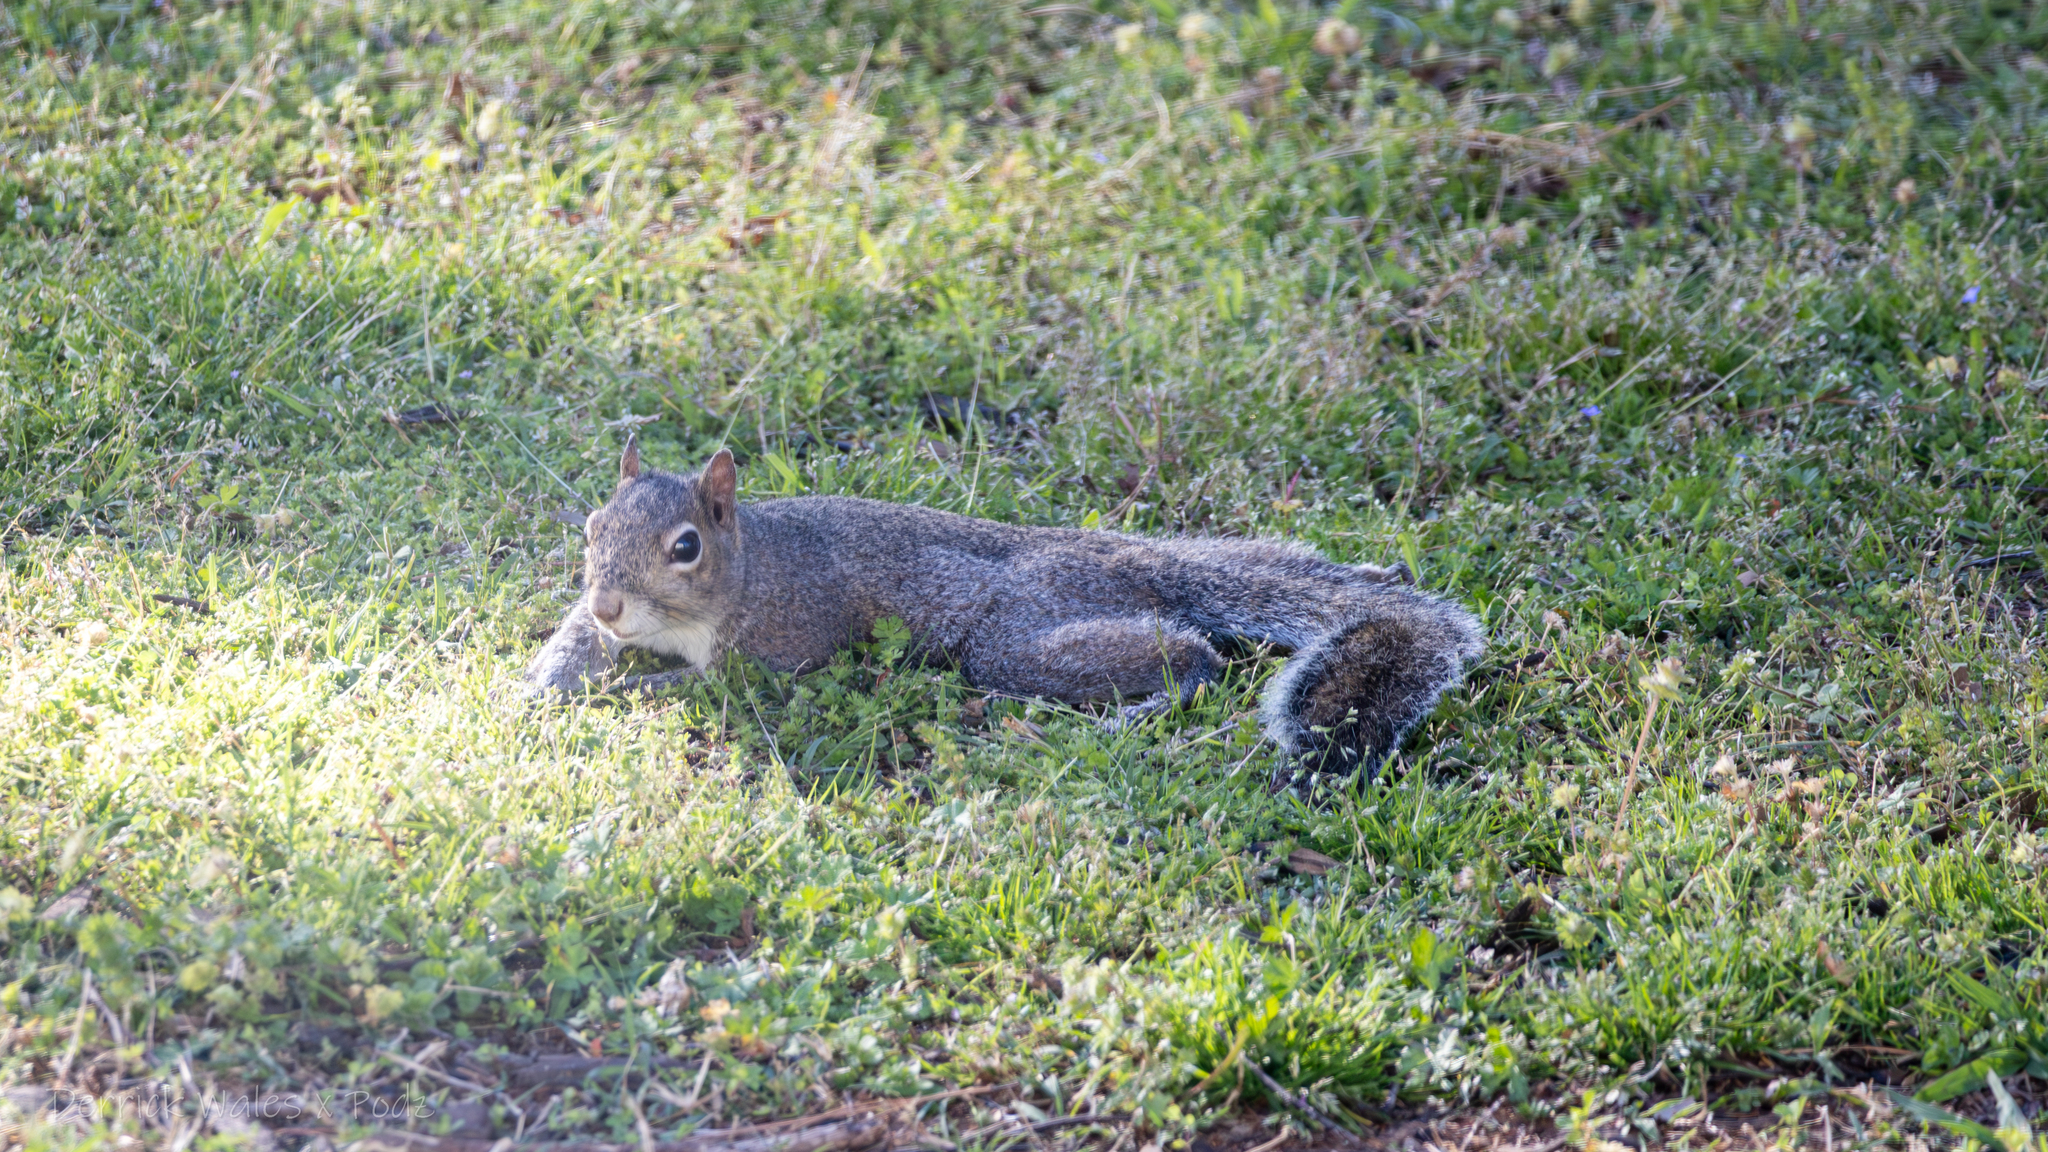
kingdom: Animalia
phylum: Chordata
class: Mammalia
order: Rodentia
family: Sciuridae
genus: Sciurus
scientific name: Sciurus carolinensis
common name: Eastern gray squirrel
